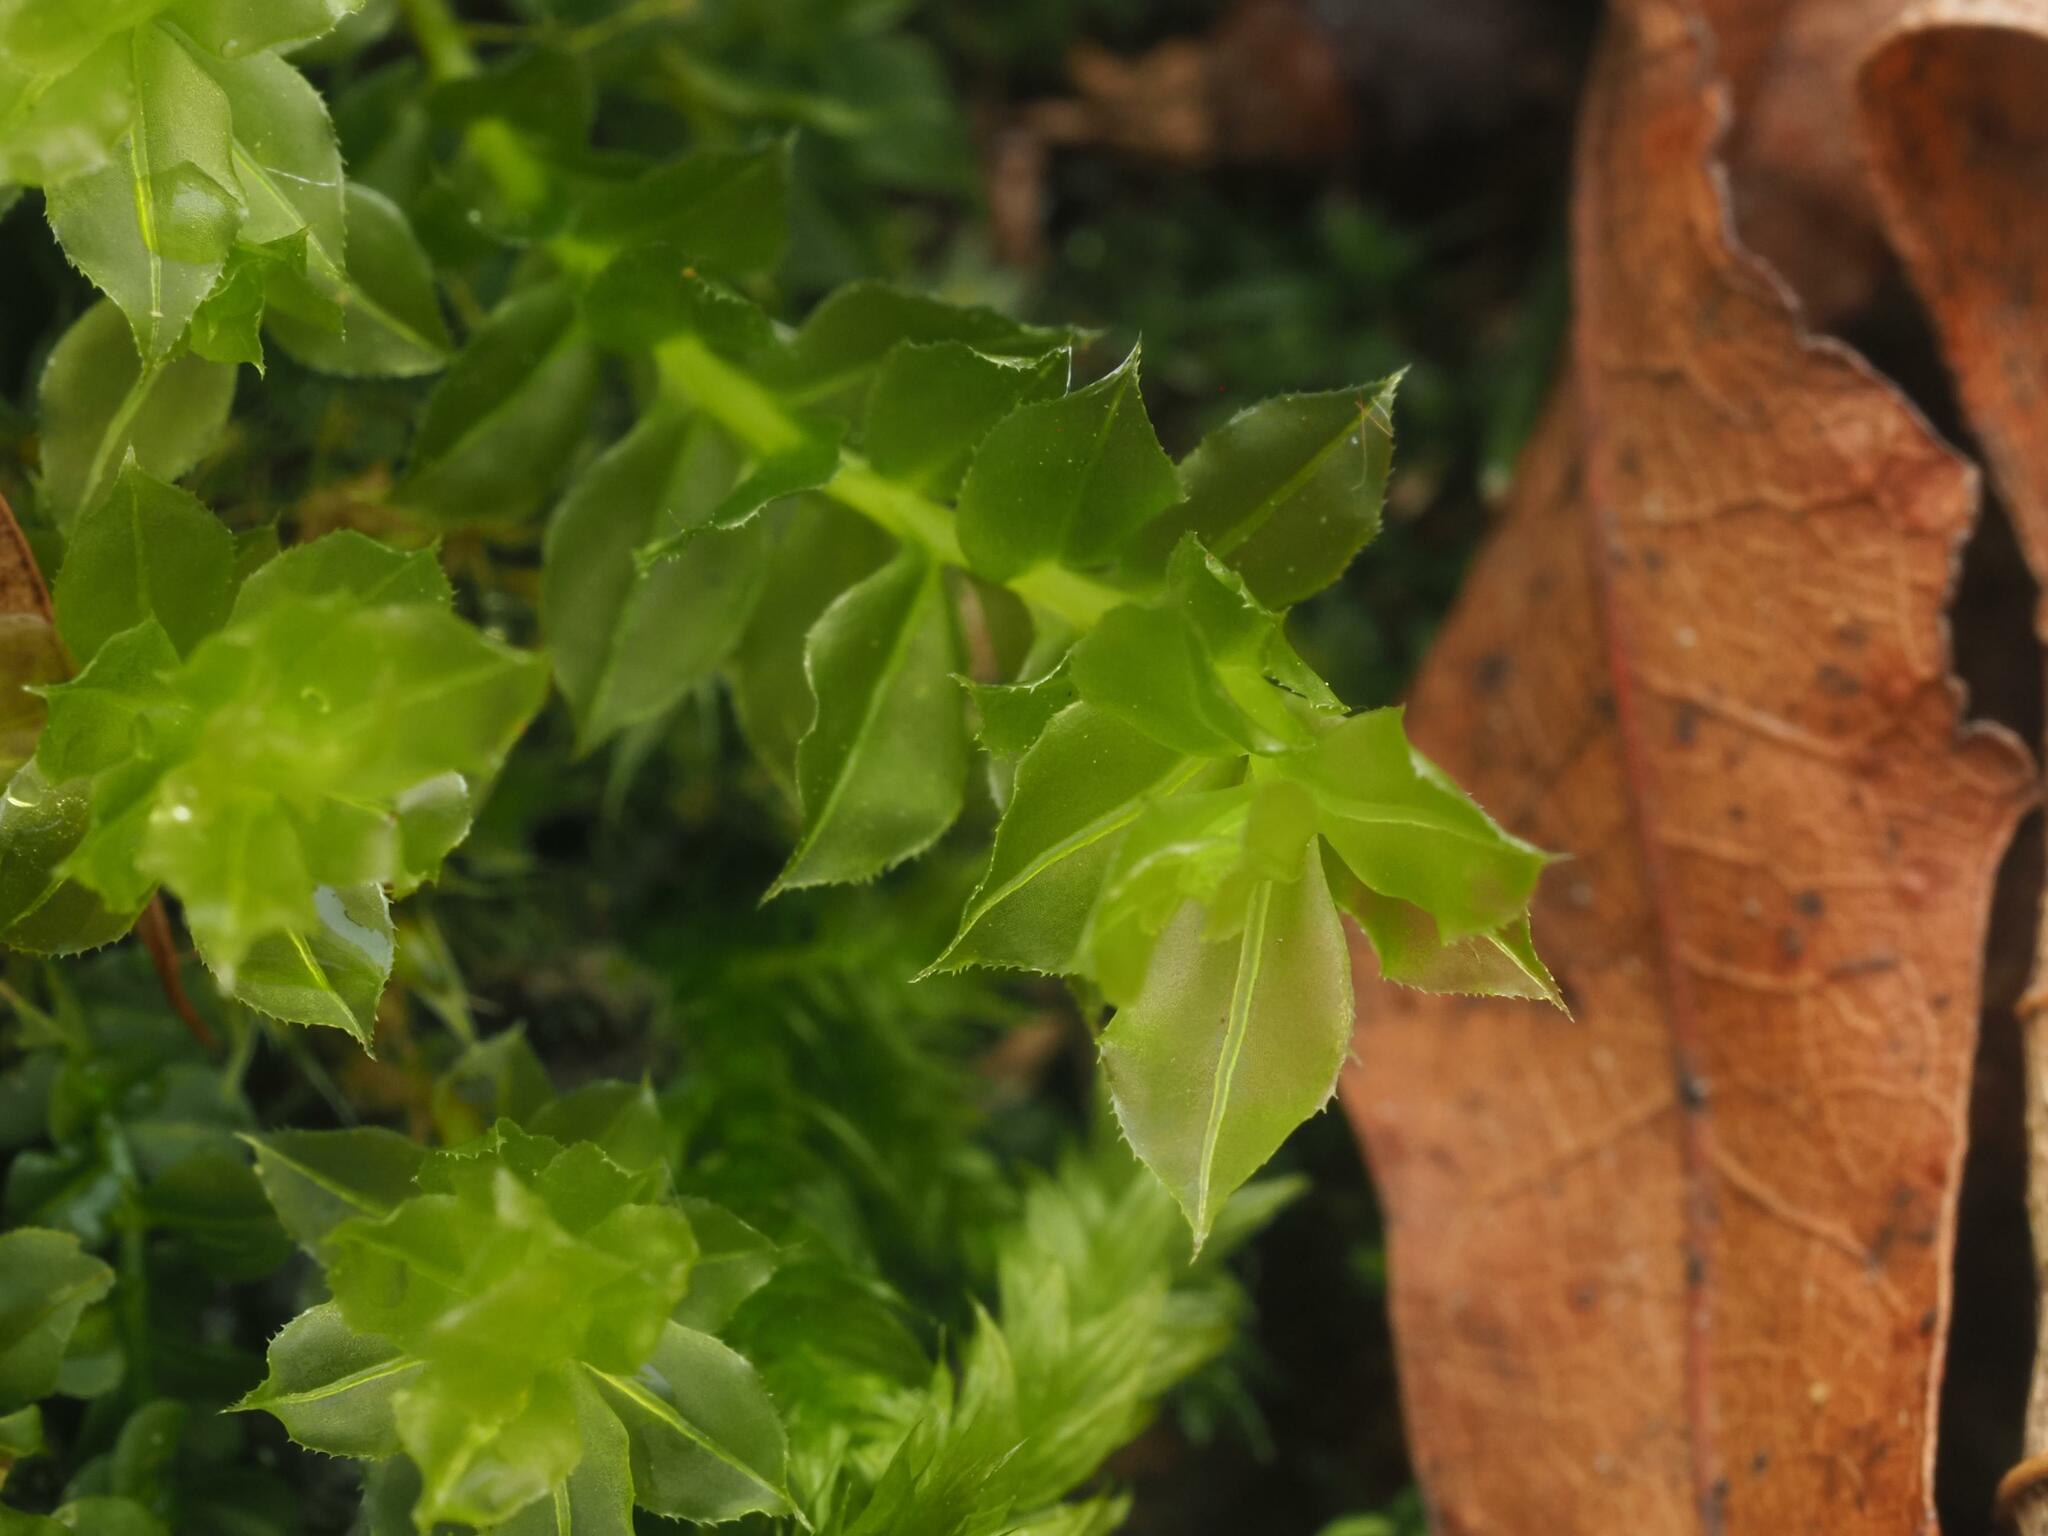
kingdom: Plantae
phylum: Bryophyta
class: Bryopsida
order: Bryales
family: Mniaceae
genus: Plagiomnium
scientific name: Plagiomnium cuspidatum
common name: Woodsy leafy moss
